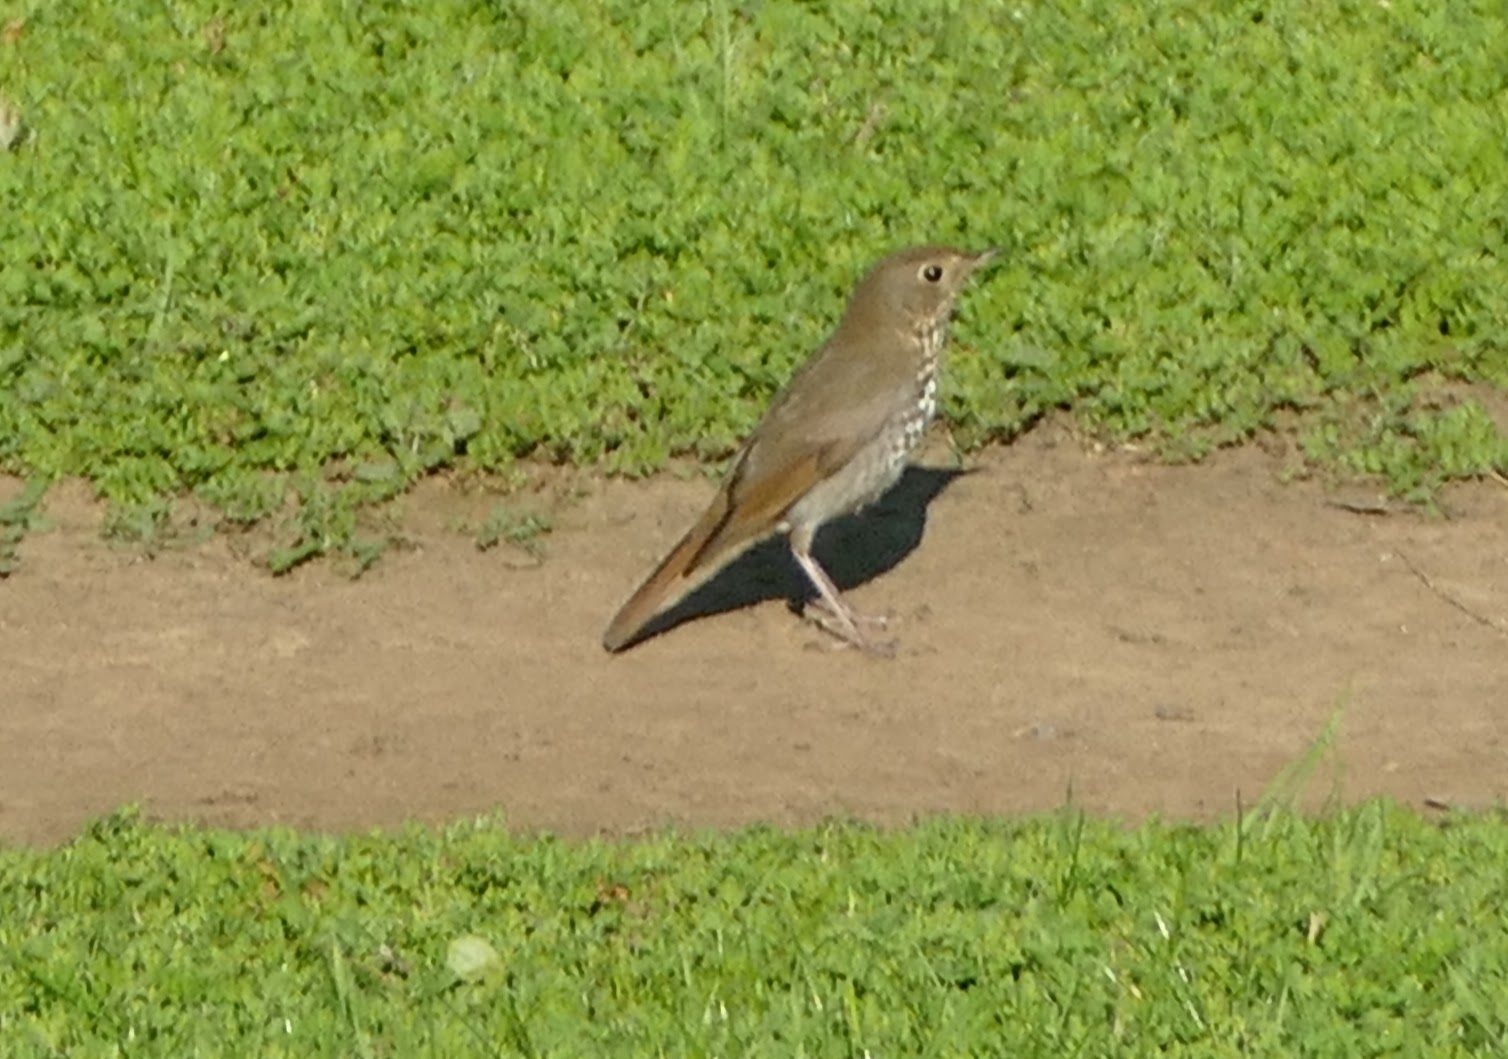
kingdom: Animalia
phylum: Chordata
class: Aves
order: Passeriformes
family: Turdidae
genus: Catharus
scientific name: Catharus guttatus
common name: Hermit thrush
